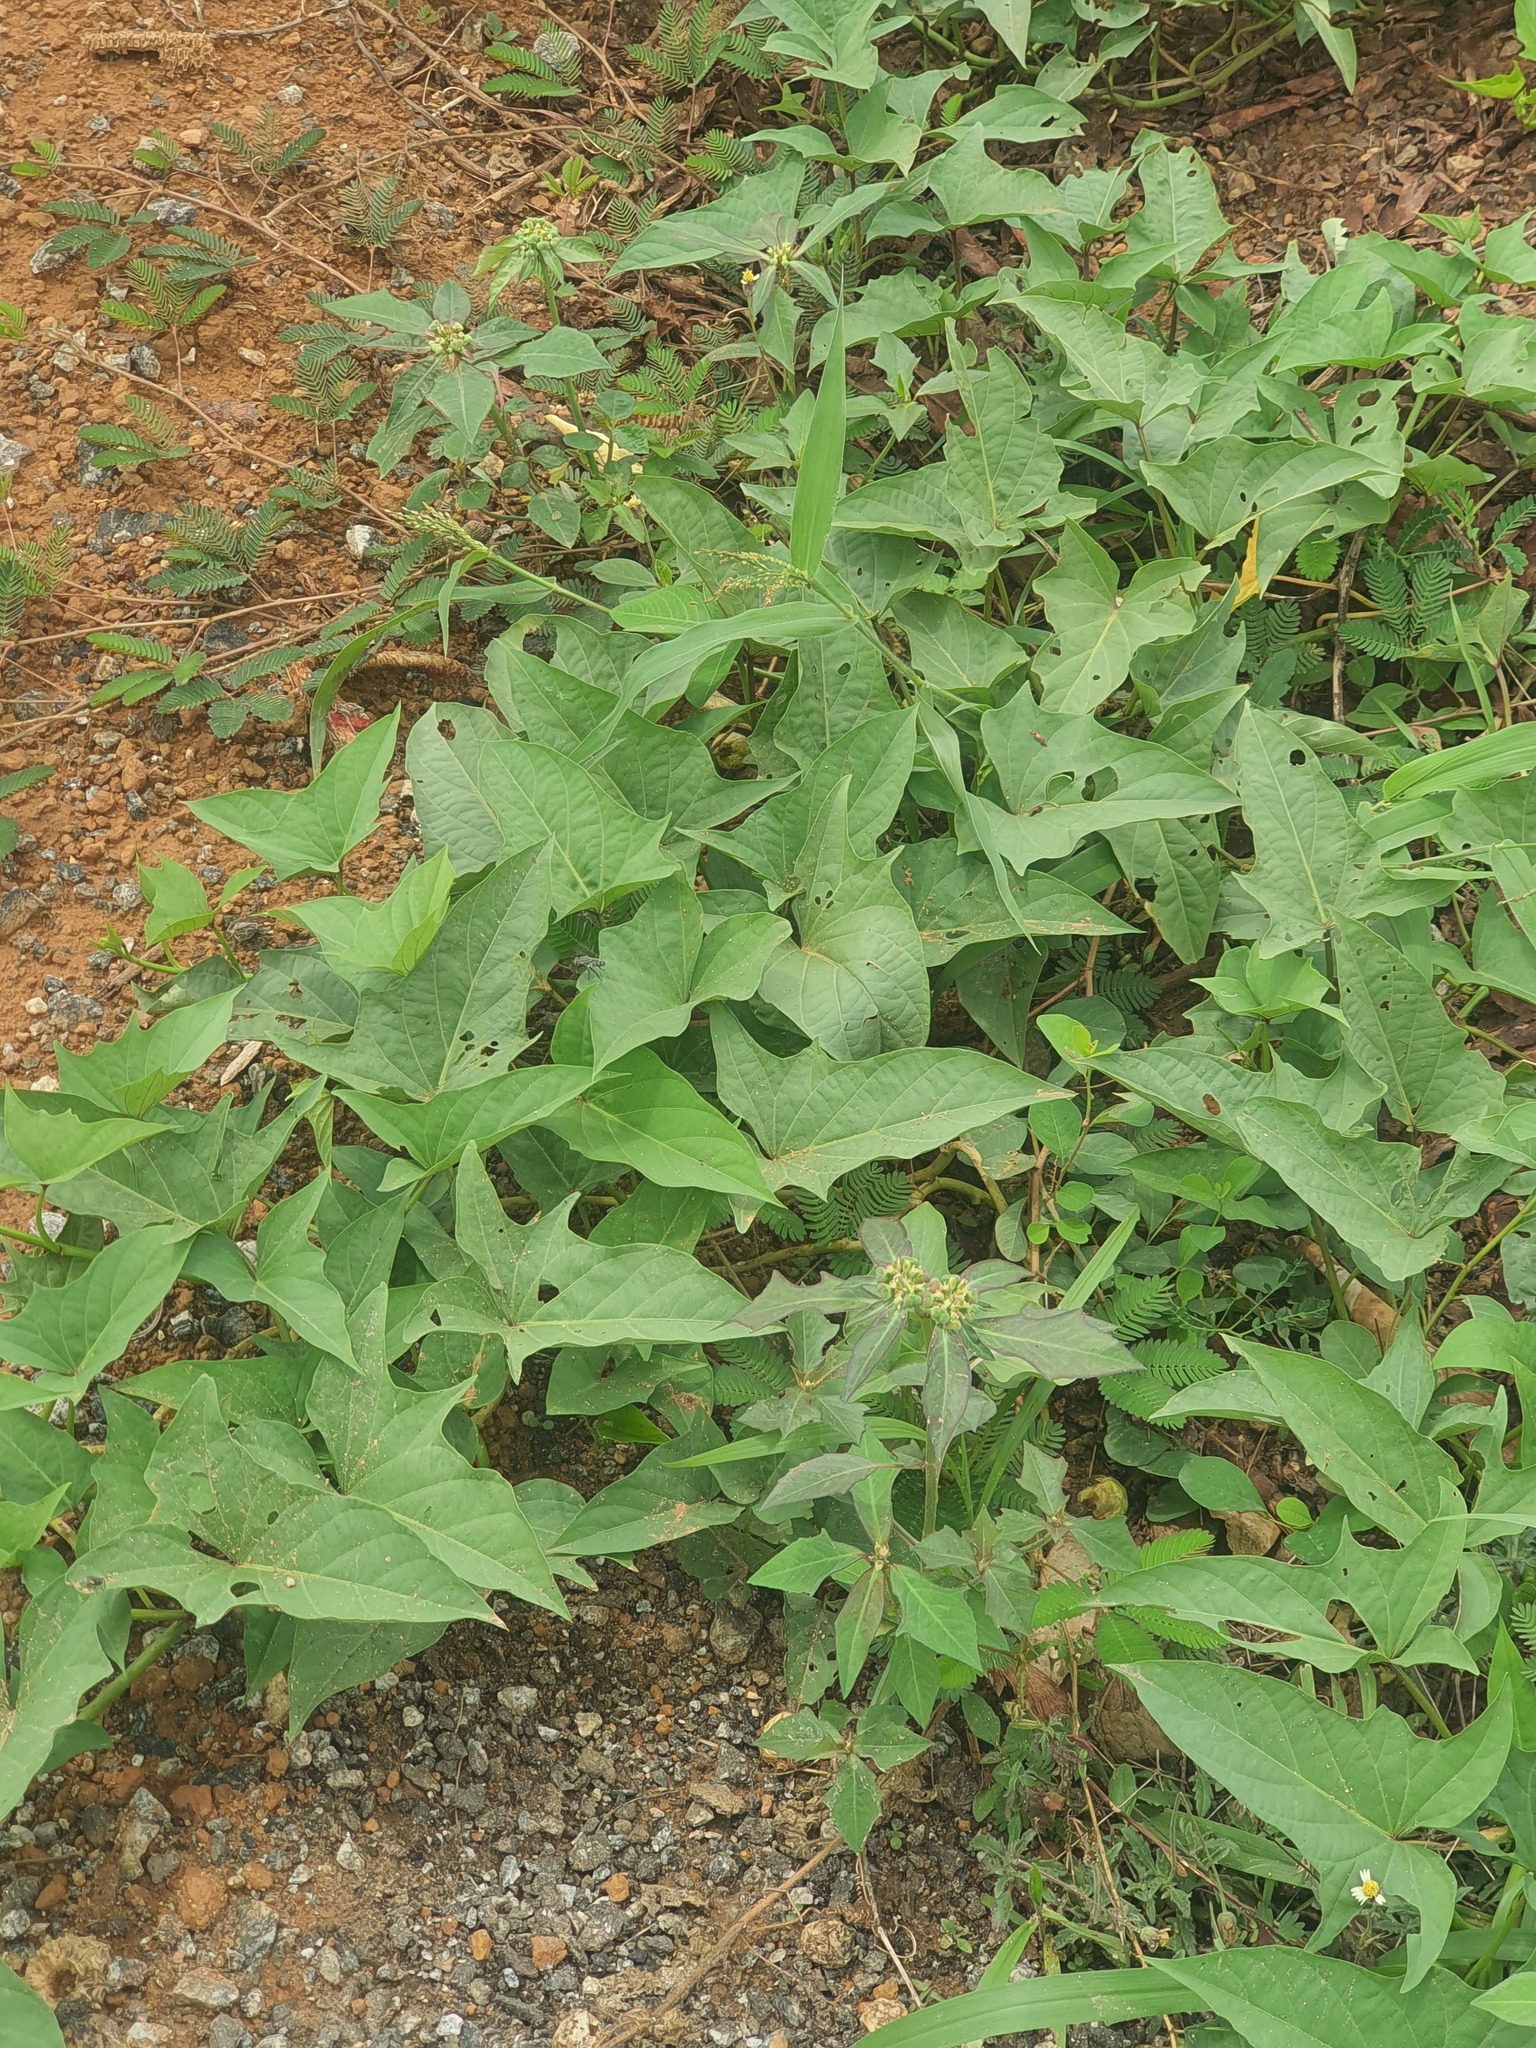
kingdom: Plantae
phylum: Tracheophyta
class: Magnoliopsida
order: Solanales
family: Convolvulaceae
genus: Ipomoea
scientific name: Ipomoea batatas
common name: Sweet-potato
